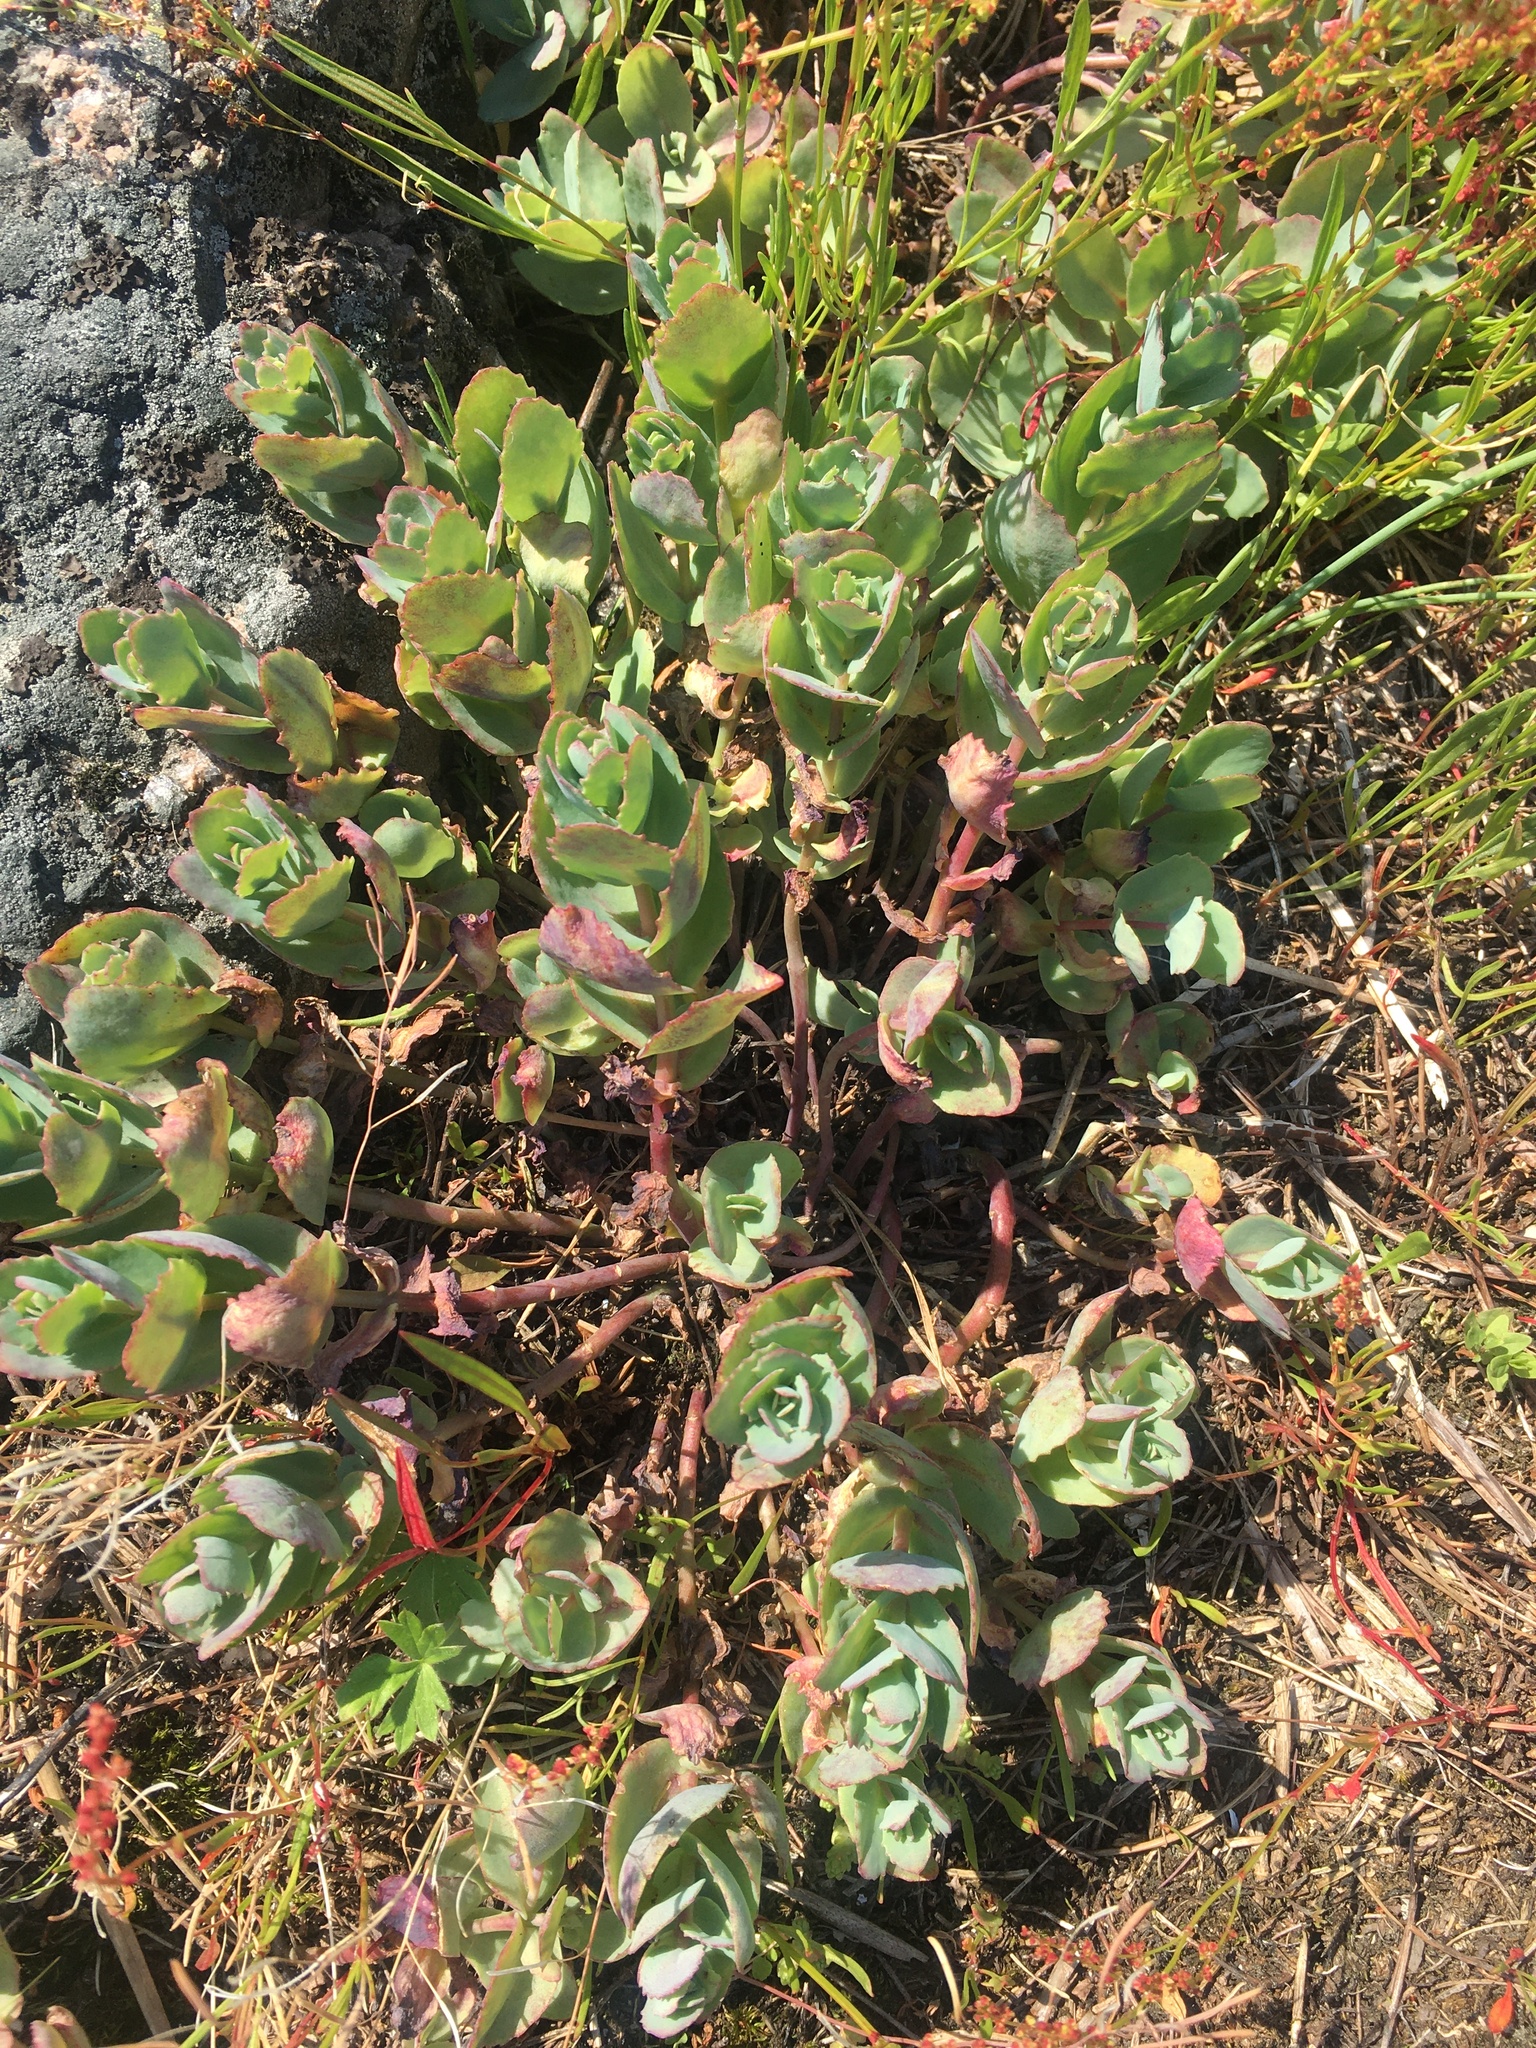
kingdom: Plantae
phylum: Tracheophyta
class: Magnoliopsida
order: Saxifragales
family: Crassulaceae
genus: Hylotelephium
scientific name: Hylotelephium maximum
